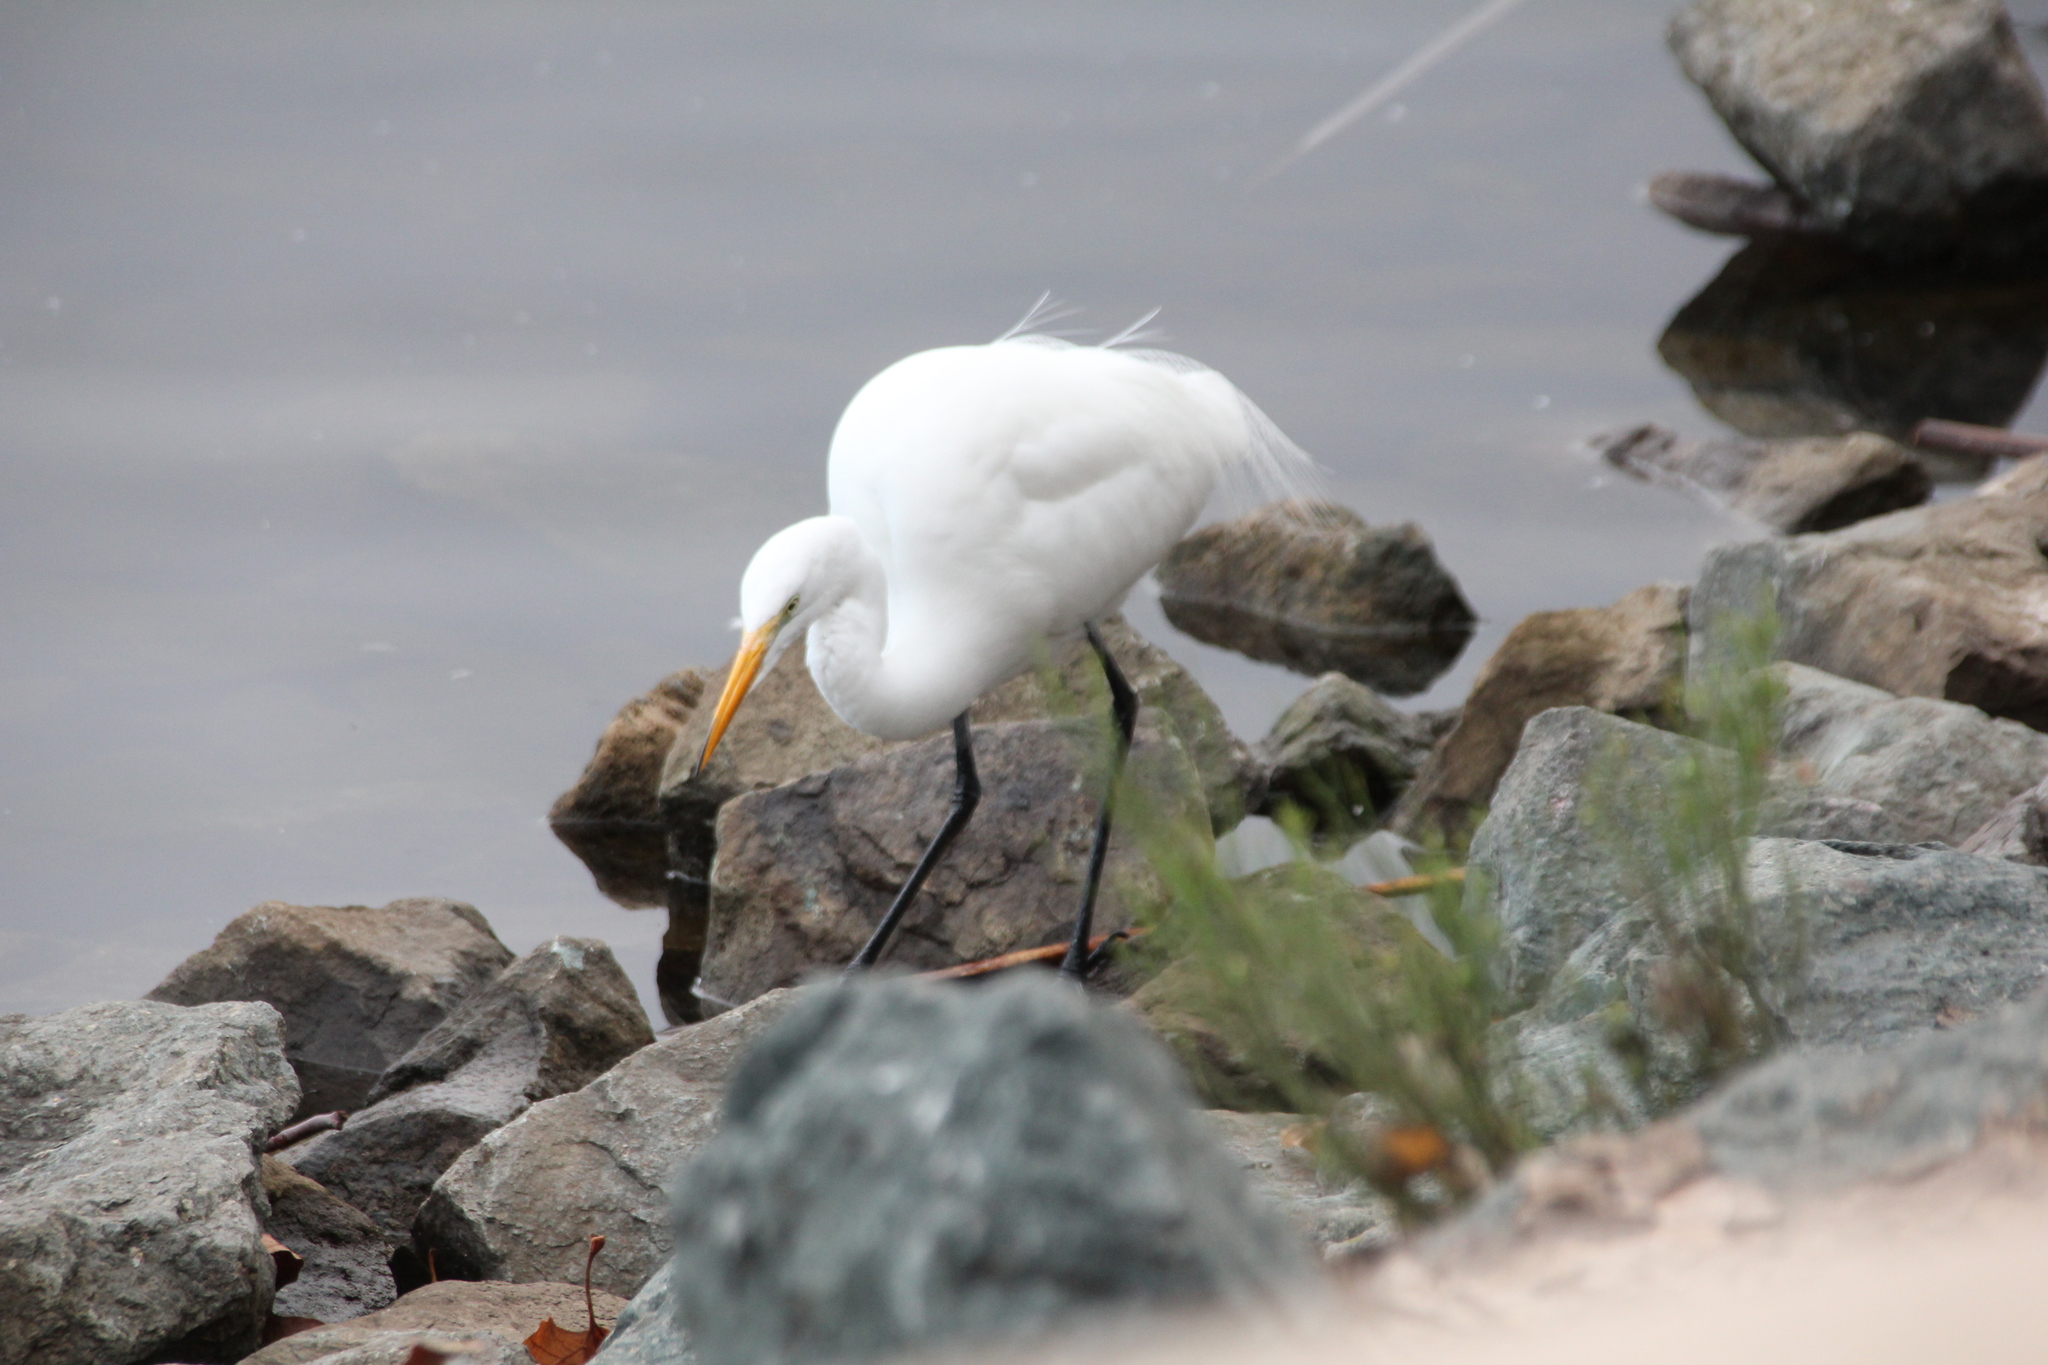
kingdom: Animalia
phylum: Chordata
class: Aves
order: Pelecaniformes
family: Ardeidae
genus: Ardea
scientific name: Ardea alba
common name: Great egret
